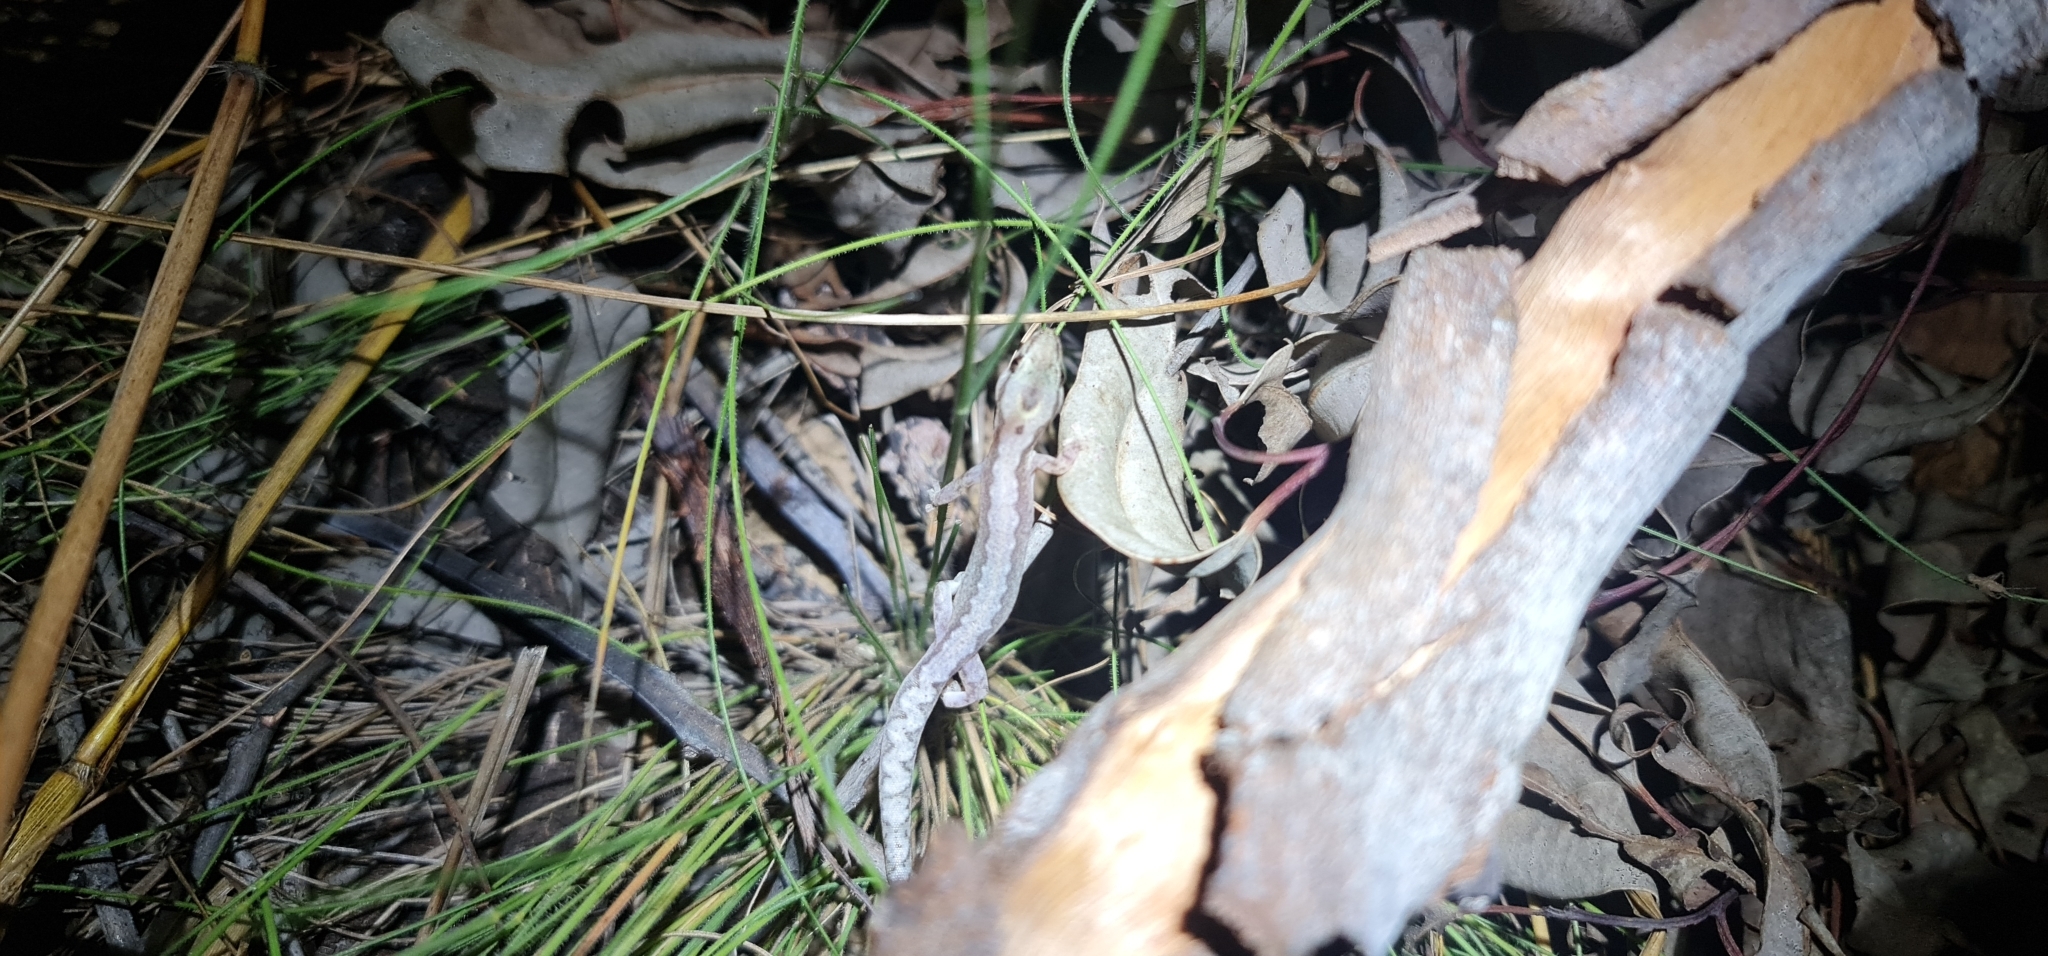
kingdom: Animalia
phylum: Chordata
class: Squamata
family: Diplodactylidae
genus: Amalosia
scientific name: Amalosia rhombifer
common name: Zig-zag gecko
